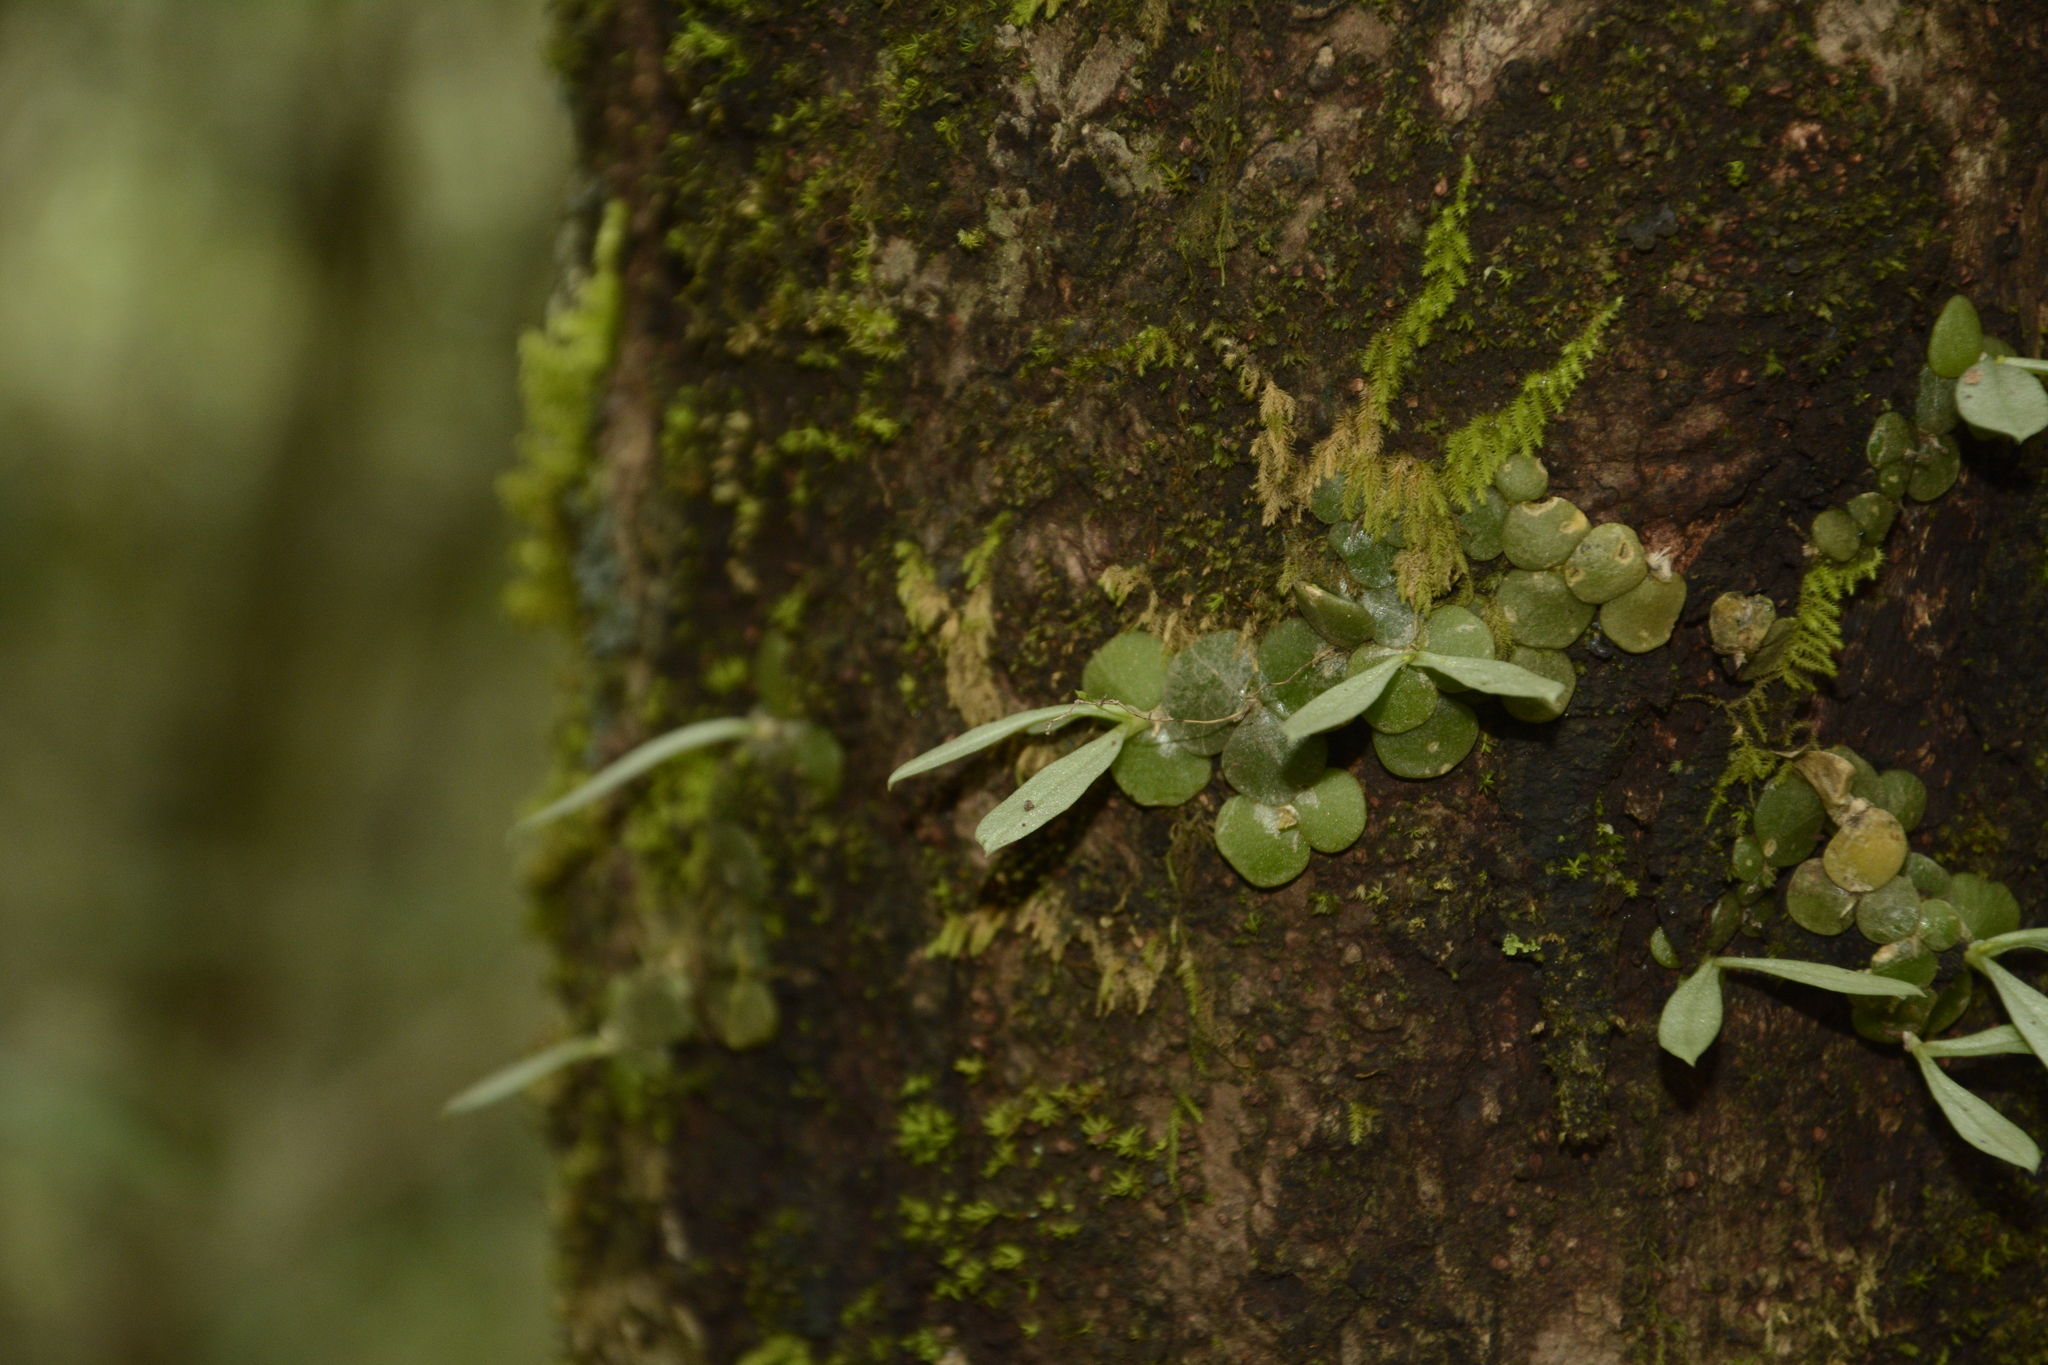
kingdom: Plantae
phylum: Tracheophyta
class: Liliopsida
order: Asparagales
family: Orchidaceae
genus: Porpax
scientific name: Porpax exilis
